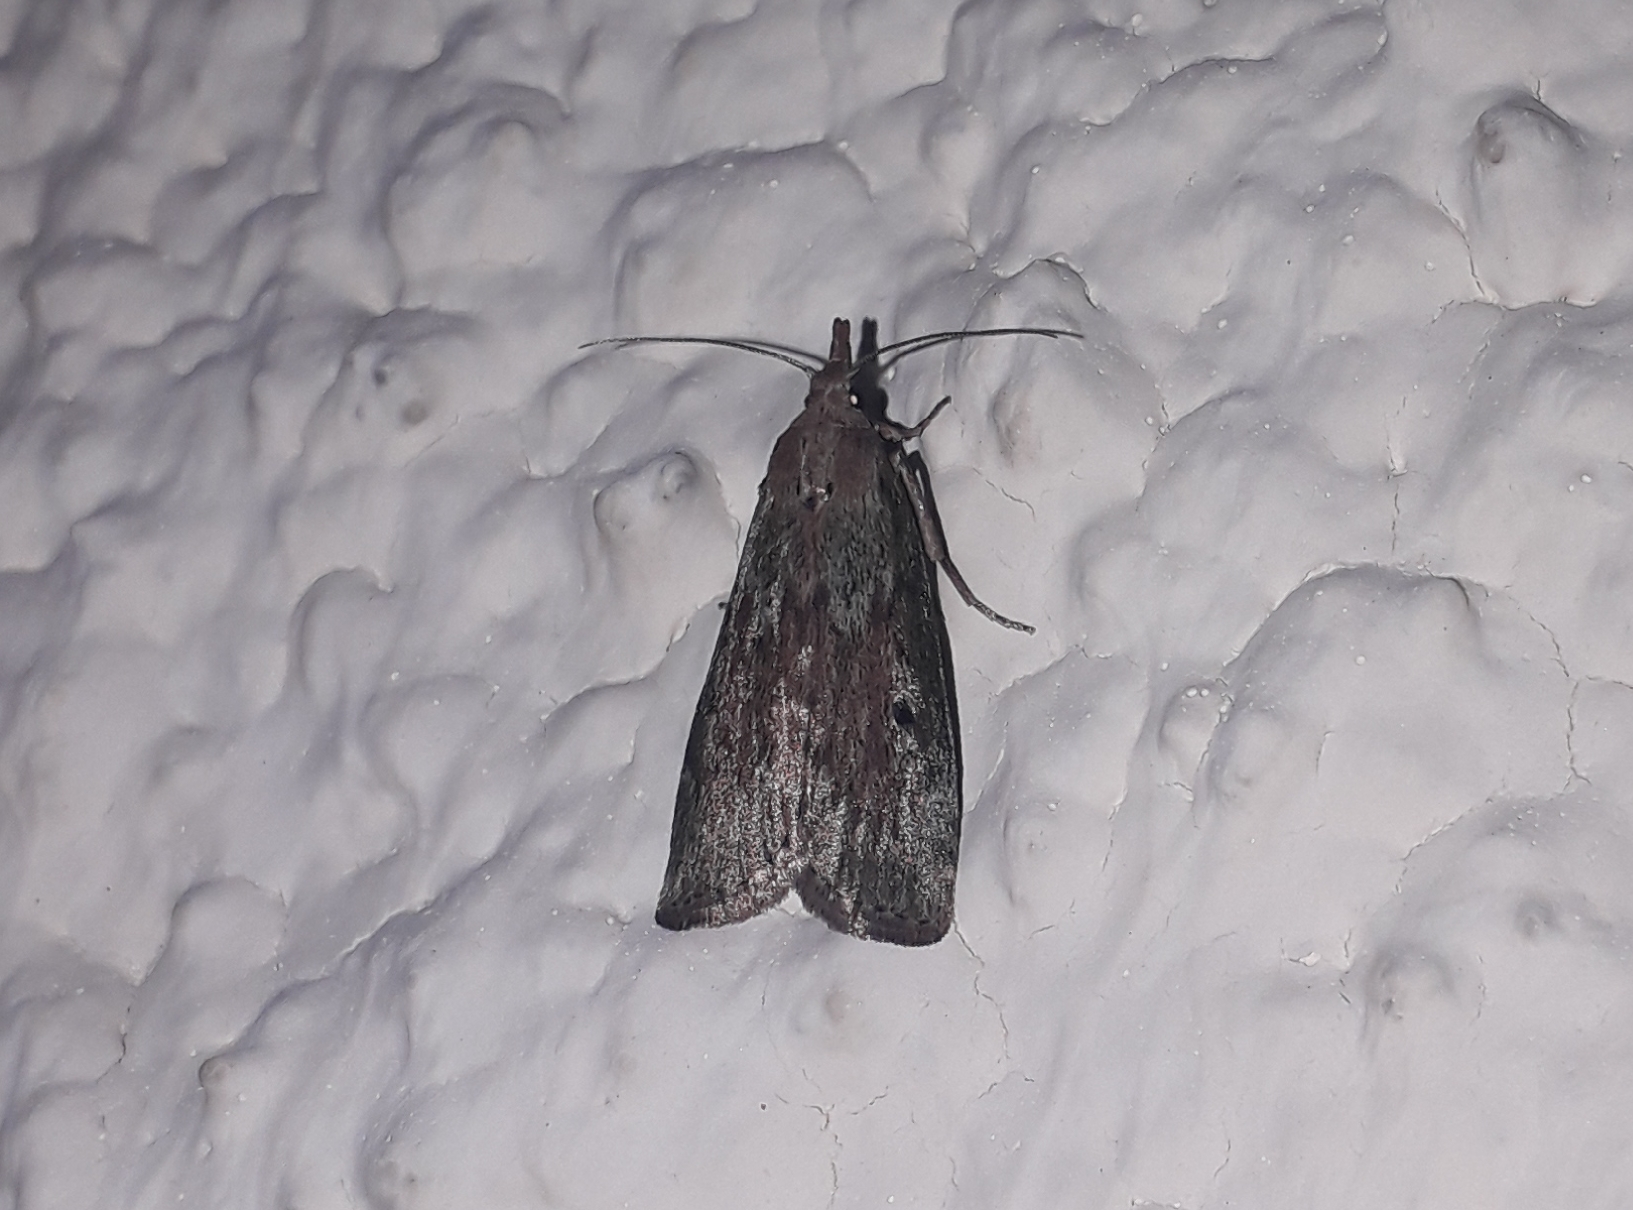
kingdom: Animalia
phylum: Arthropoda
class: Insecta
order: Lepidoptera
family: Pyralidae
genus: Aphomia
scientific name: Aphomia sociella
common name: Bee moth
